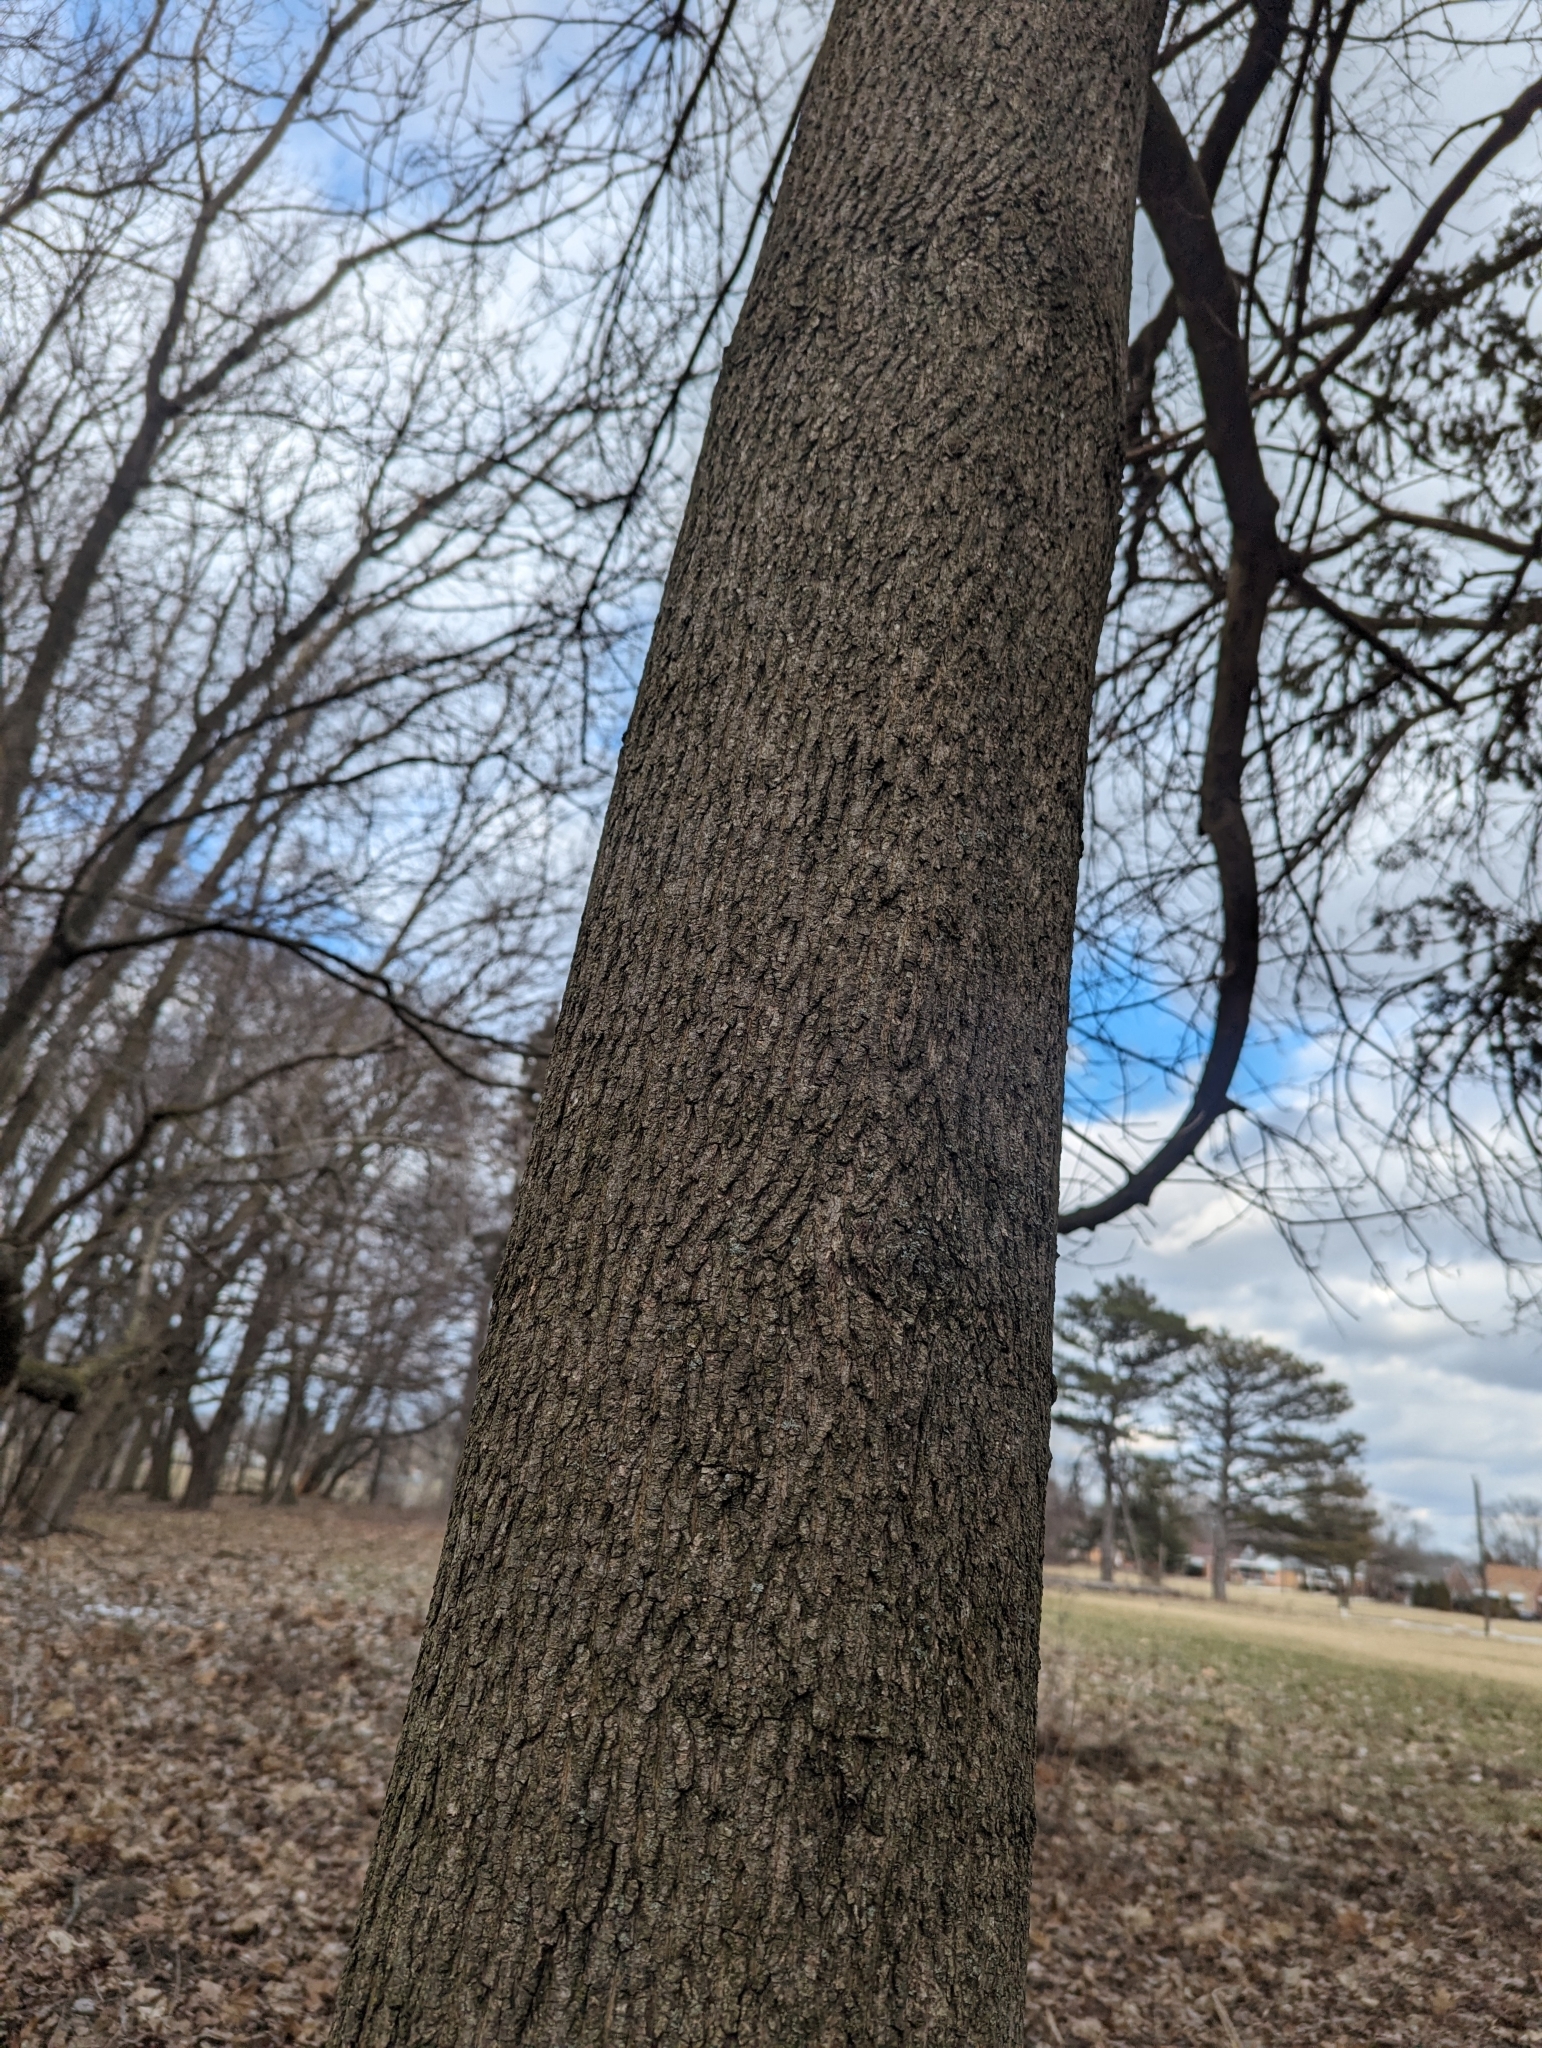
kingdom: Plantae
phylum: Tracheophyta
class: Magnoliopsida
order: Sapindales
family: Sapindaceae
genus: Acer
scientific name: Acer platanoides
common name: Norway maple
